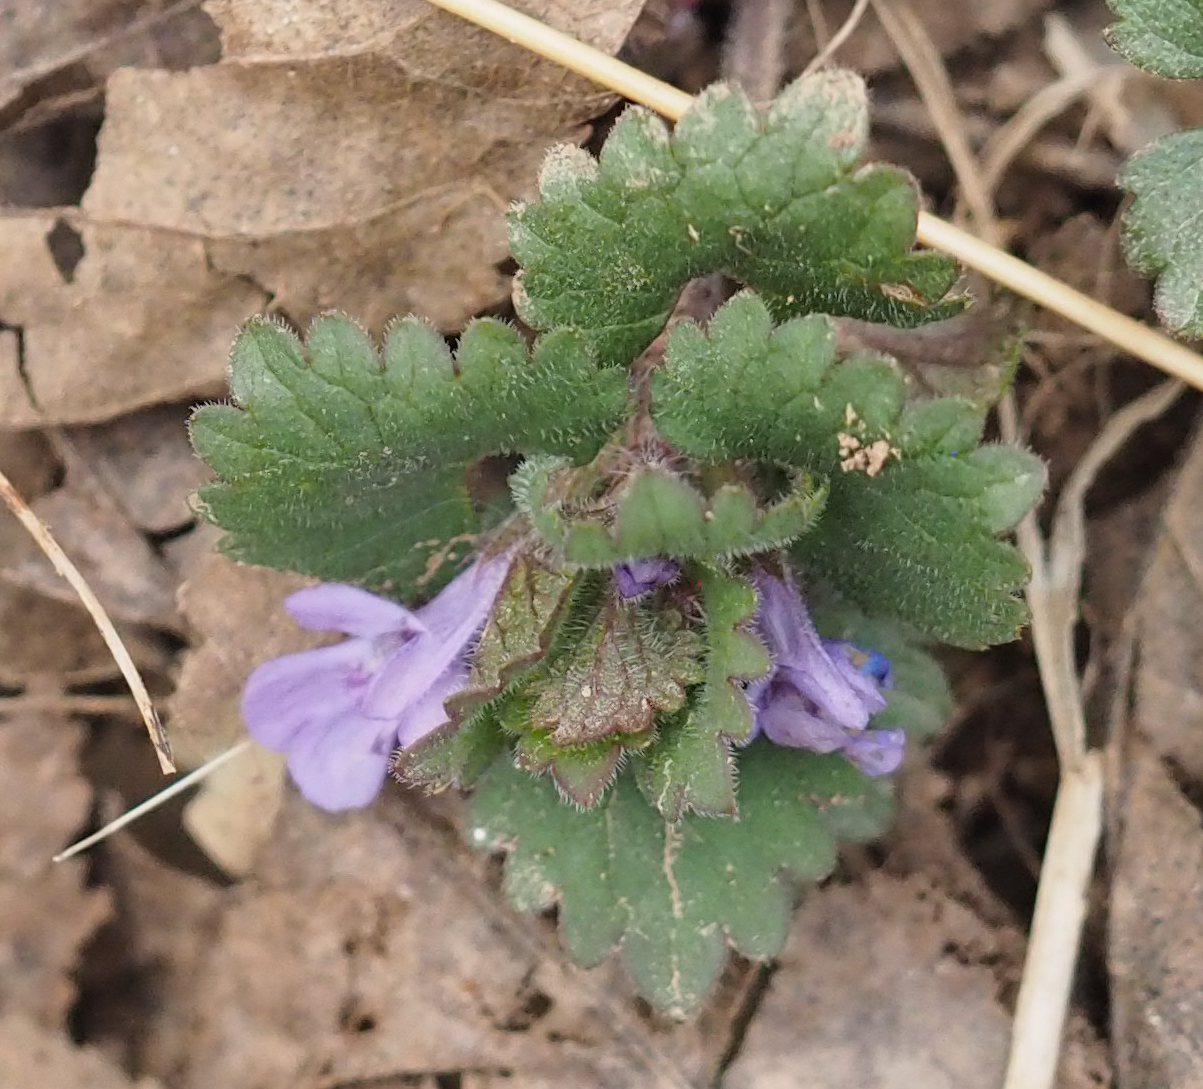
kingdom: Plantae
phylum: Tracheophyta
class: Magnoliopsida
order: Lamiales
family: Lamiaceae
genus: Glechoma
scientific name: Glechoma hederacea
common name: Ground ivy
